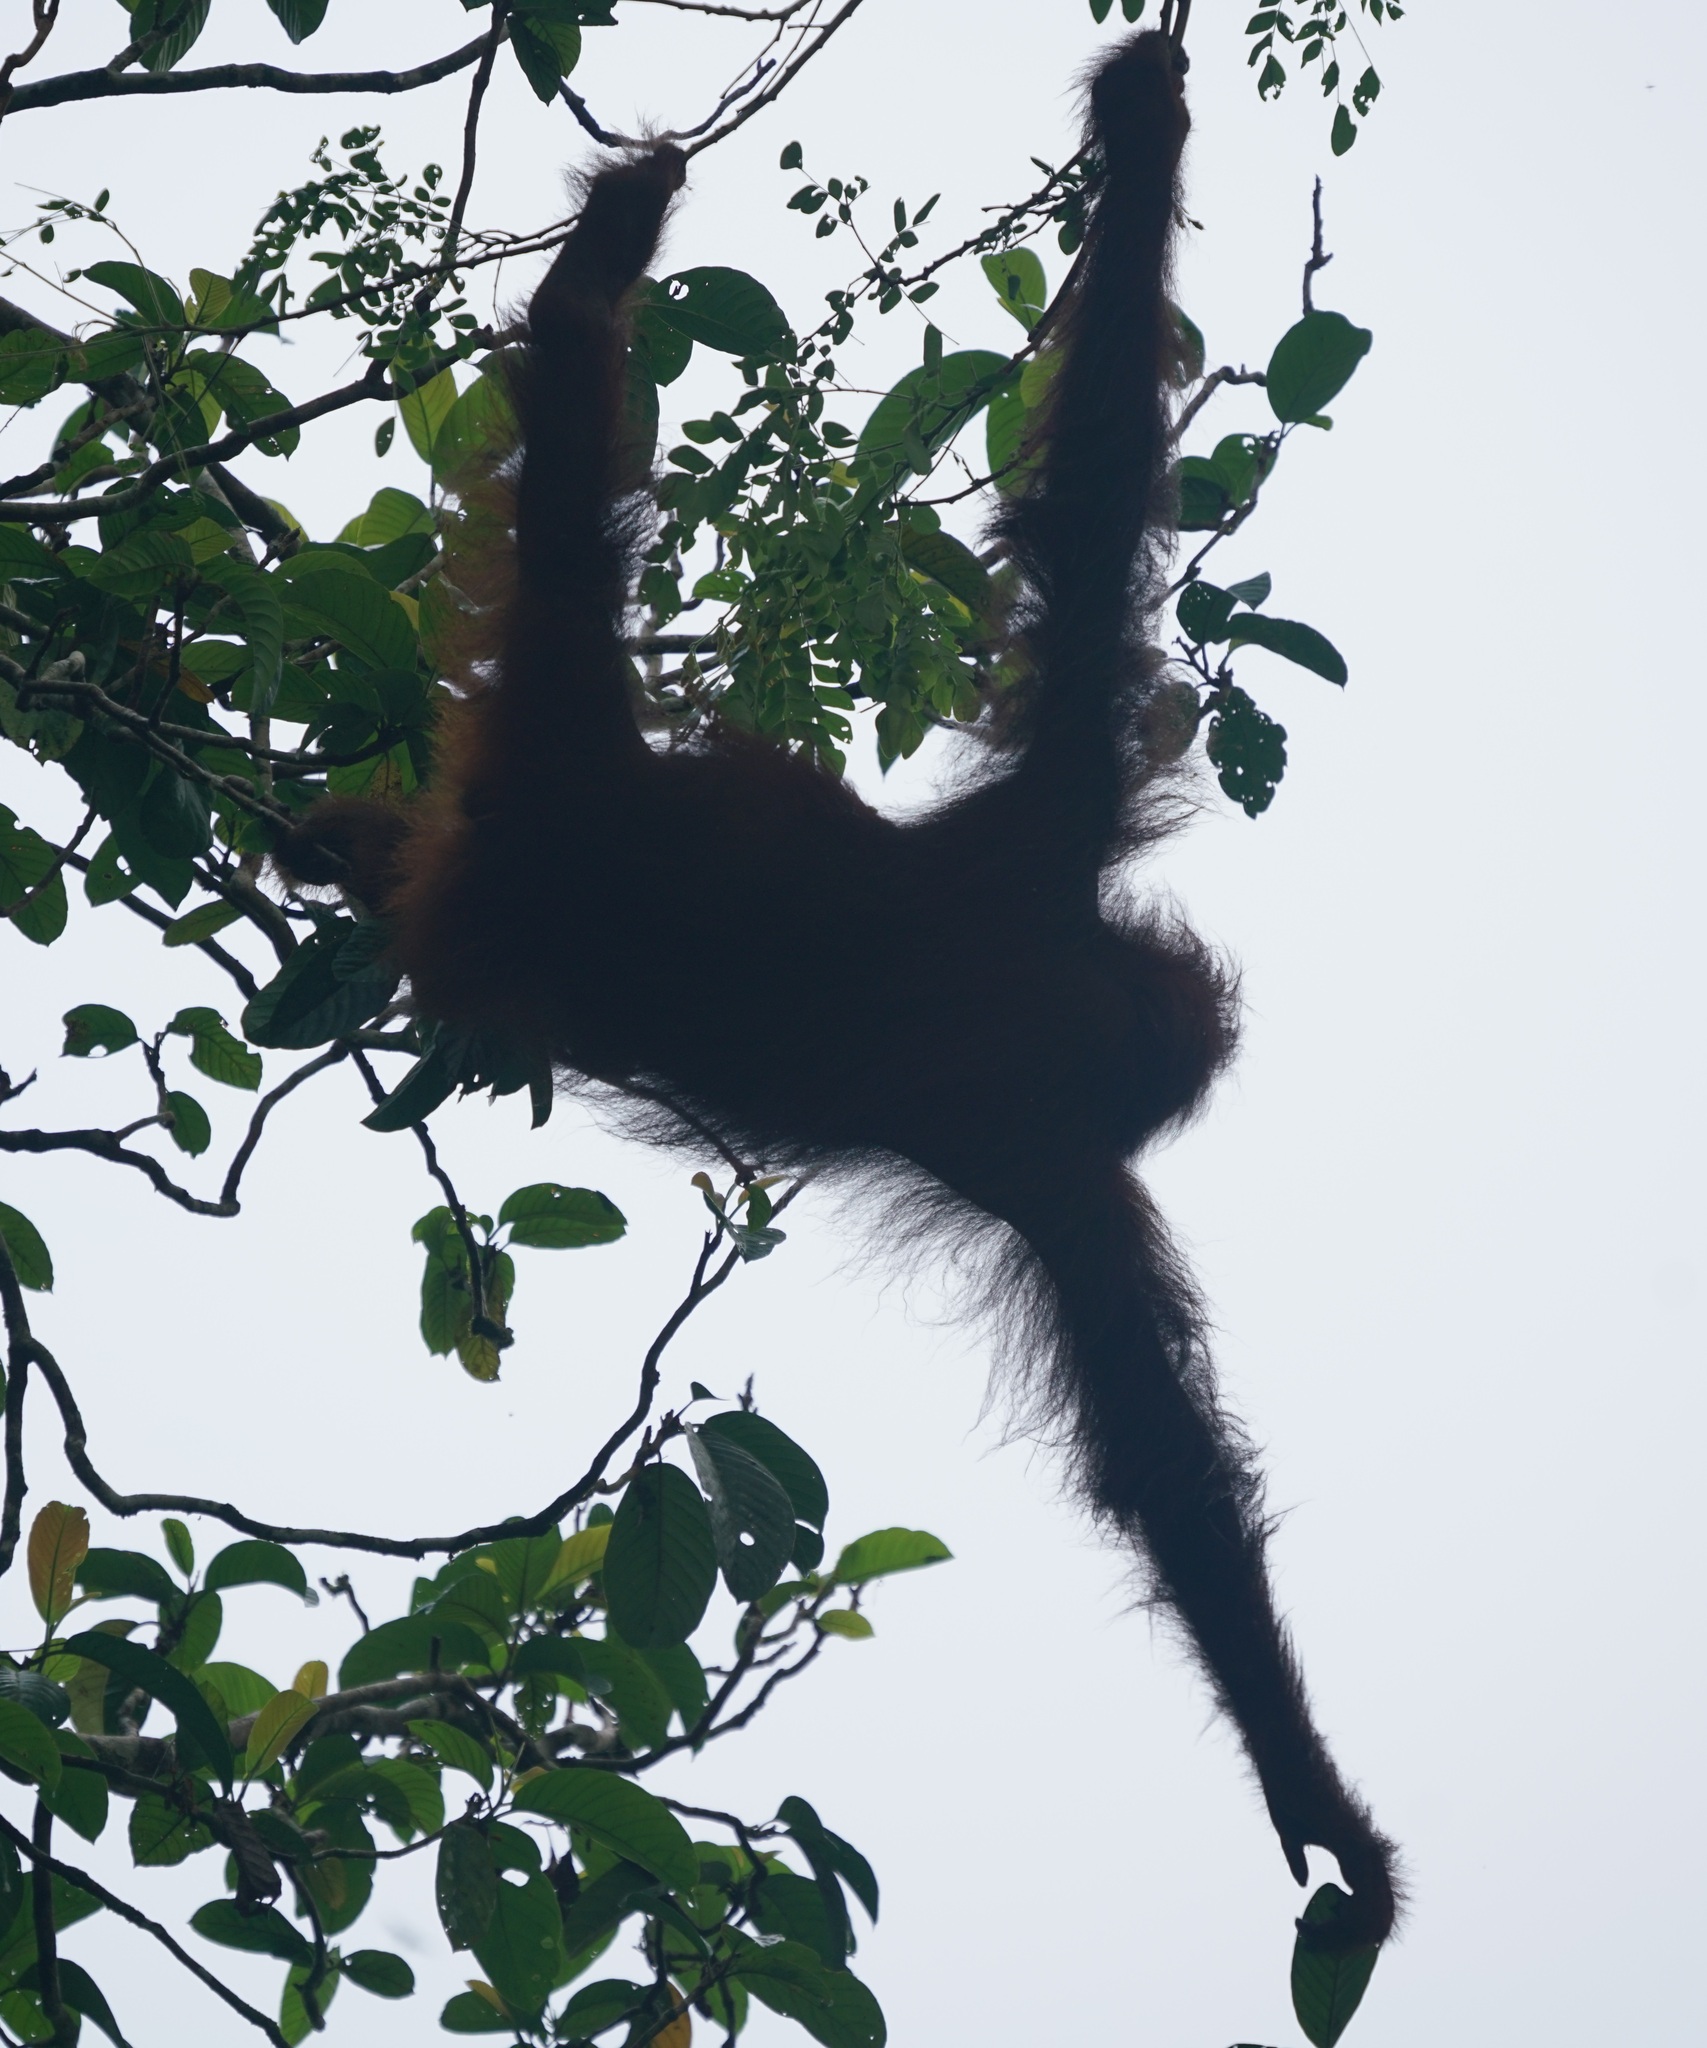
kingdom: Animalia
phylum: Chordata
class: Mammalia
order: Primates
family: Hominidae
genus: Pongo
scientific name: Pongo pygmaeus
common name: Bornean orangutan
